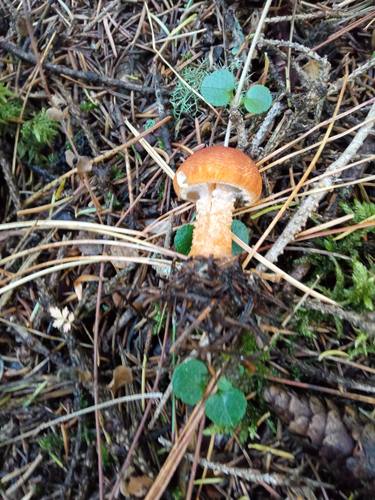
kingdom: Fungi
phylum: Basidiomycota
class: Agaricomycetes
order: Agaricales
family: Tricholomataceae
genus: Cystoderma
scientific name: Cystoderma amianthinum
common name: Earthy powdercap
